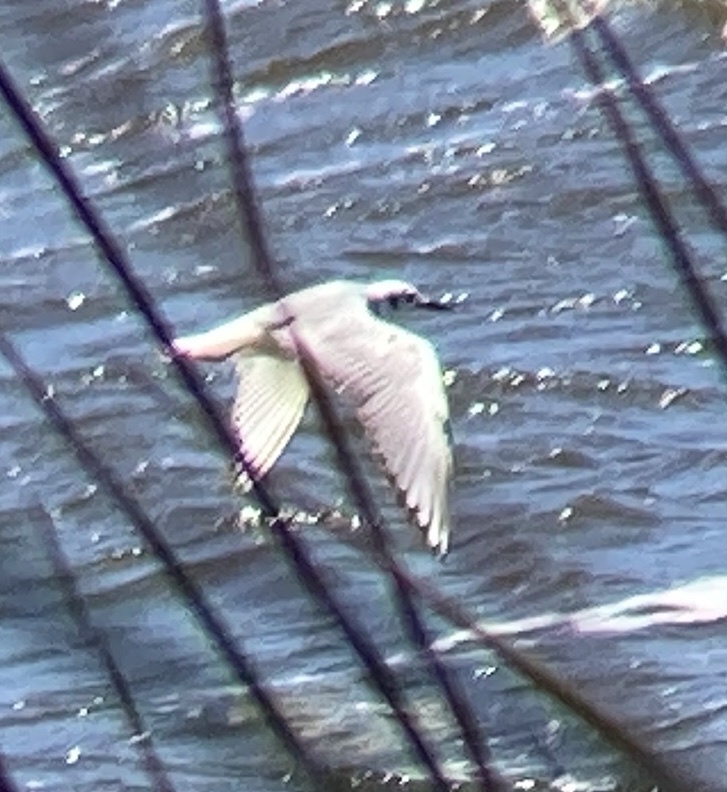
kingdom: Animalia
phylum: Chordata
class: Aves
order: Charadriiformes
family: Laridae
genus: Chroicocephalus
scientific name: Chroicocephalus philadelphia
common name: Bonaparte's gull
